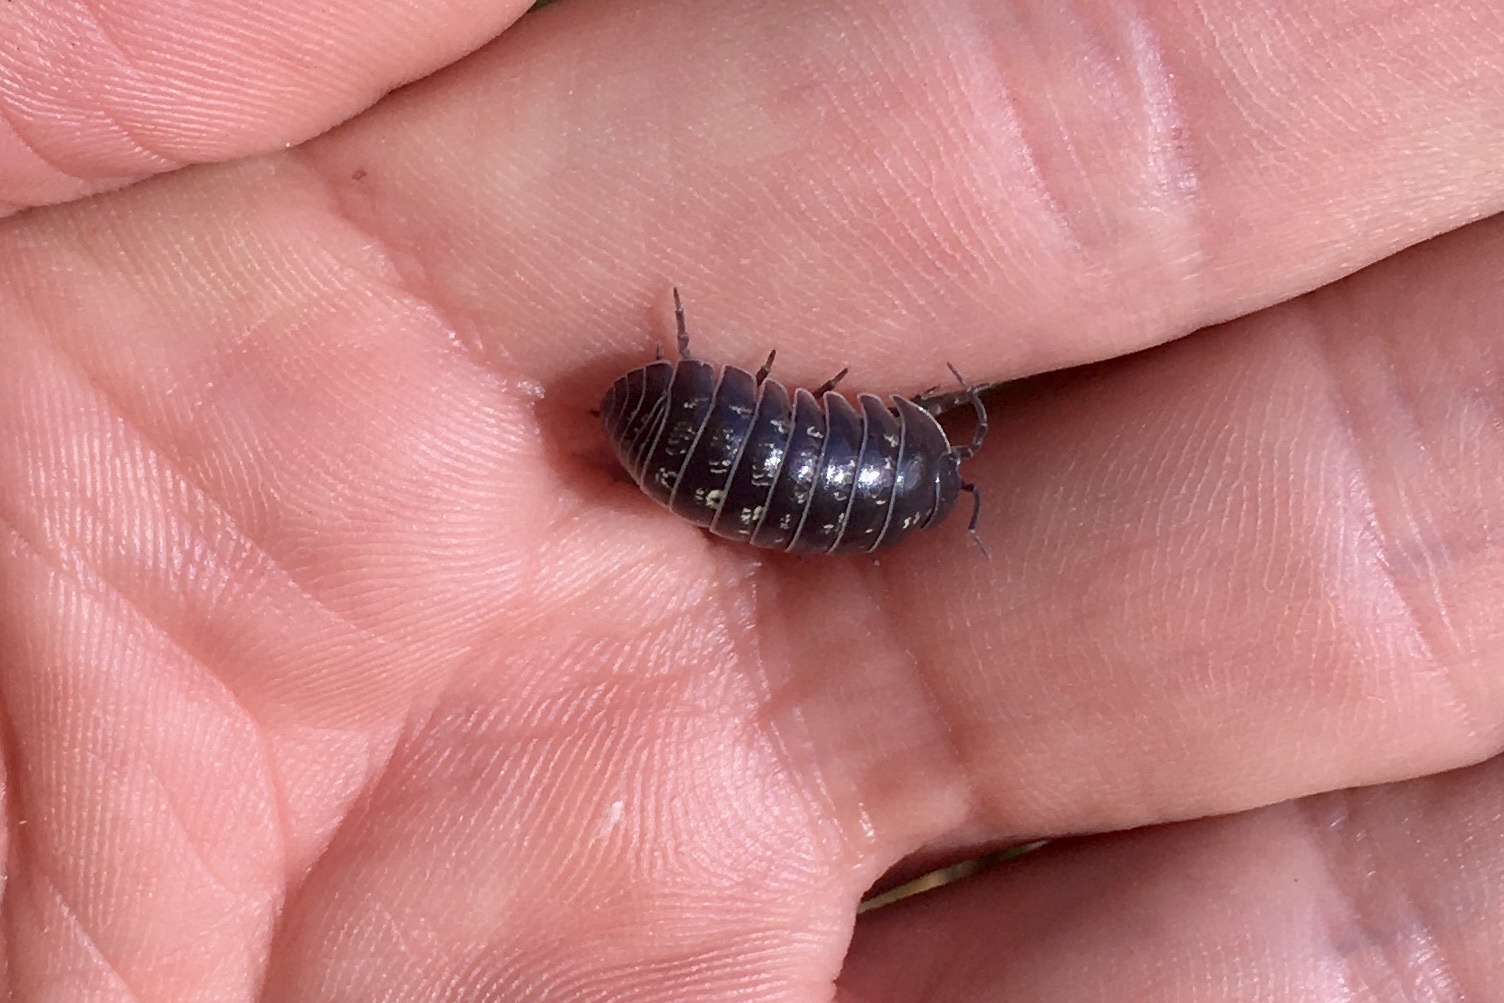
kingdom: Animalia
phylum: Arthropoda
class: Malacostraca
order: Isopoda
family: Armadillidiidae
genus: Armadillidium
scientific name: Armadillidium vulgare
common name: Common pill woodlouse
